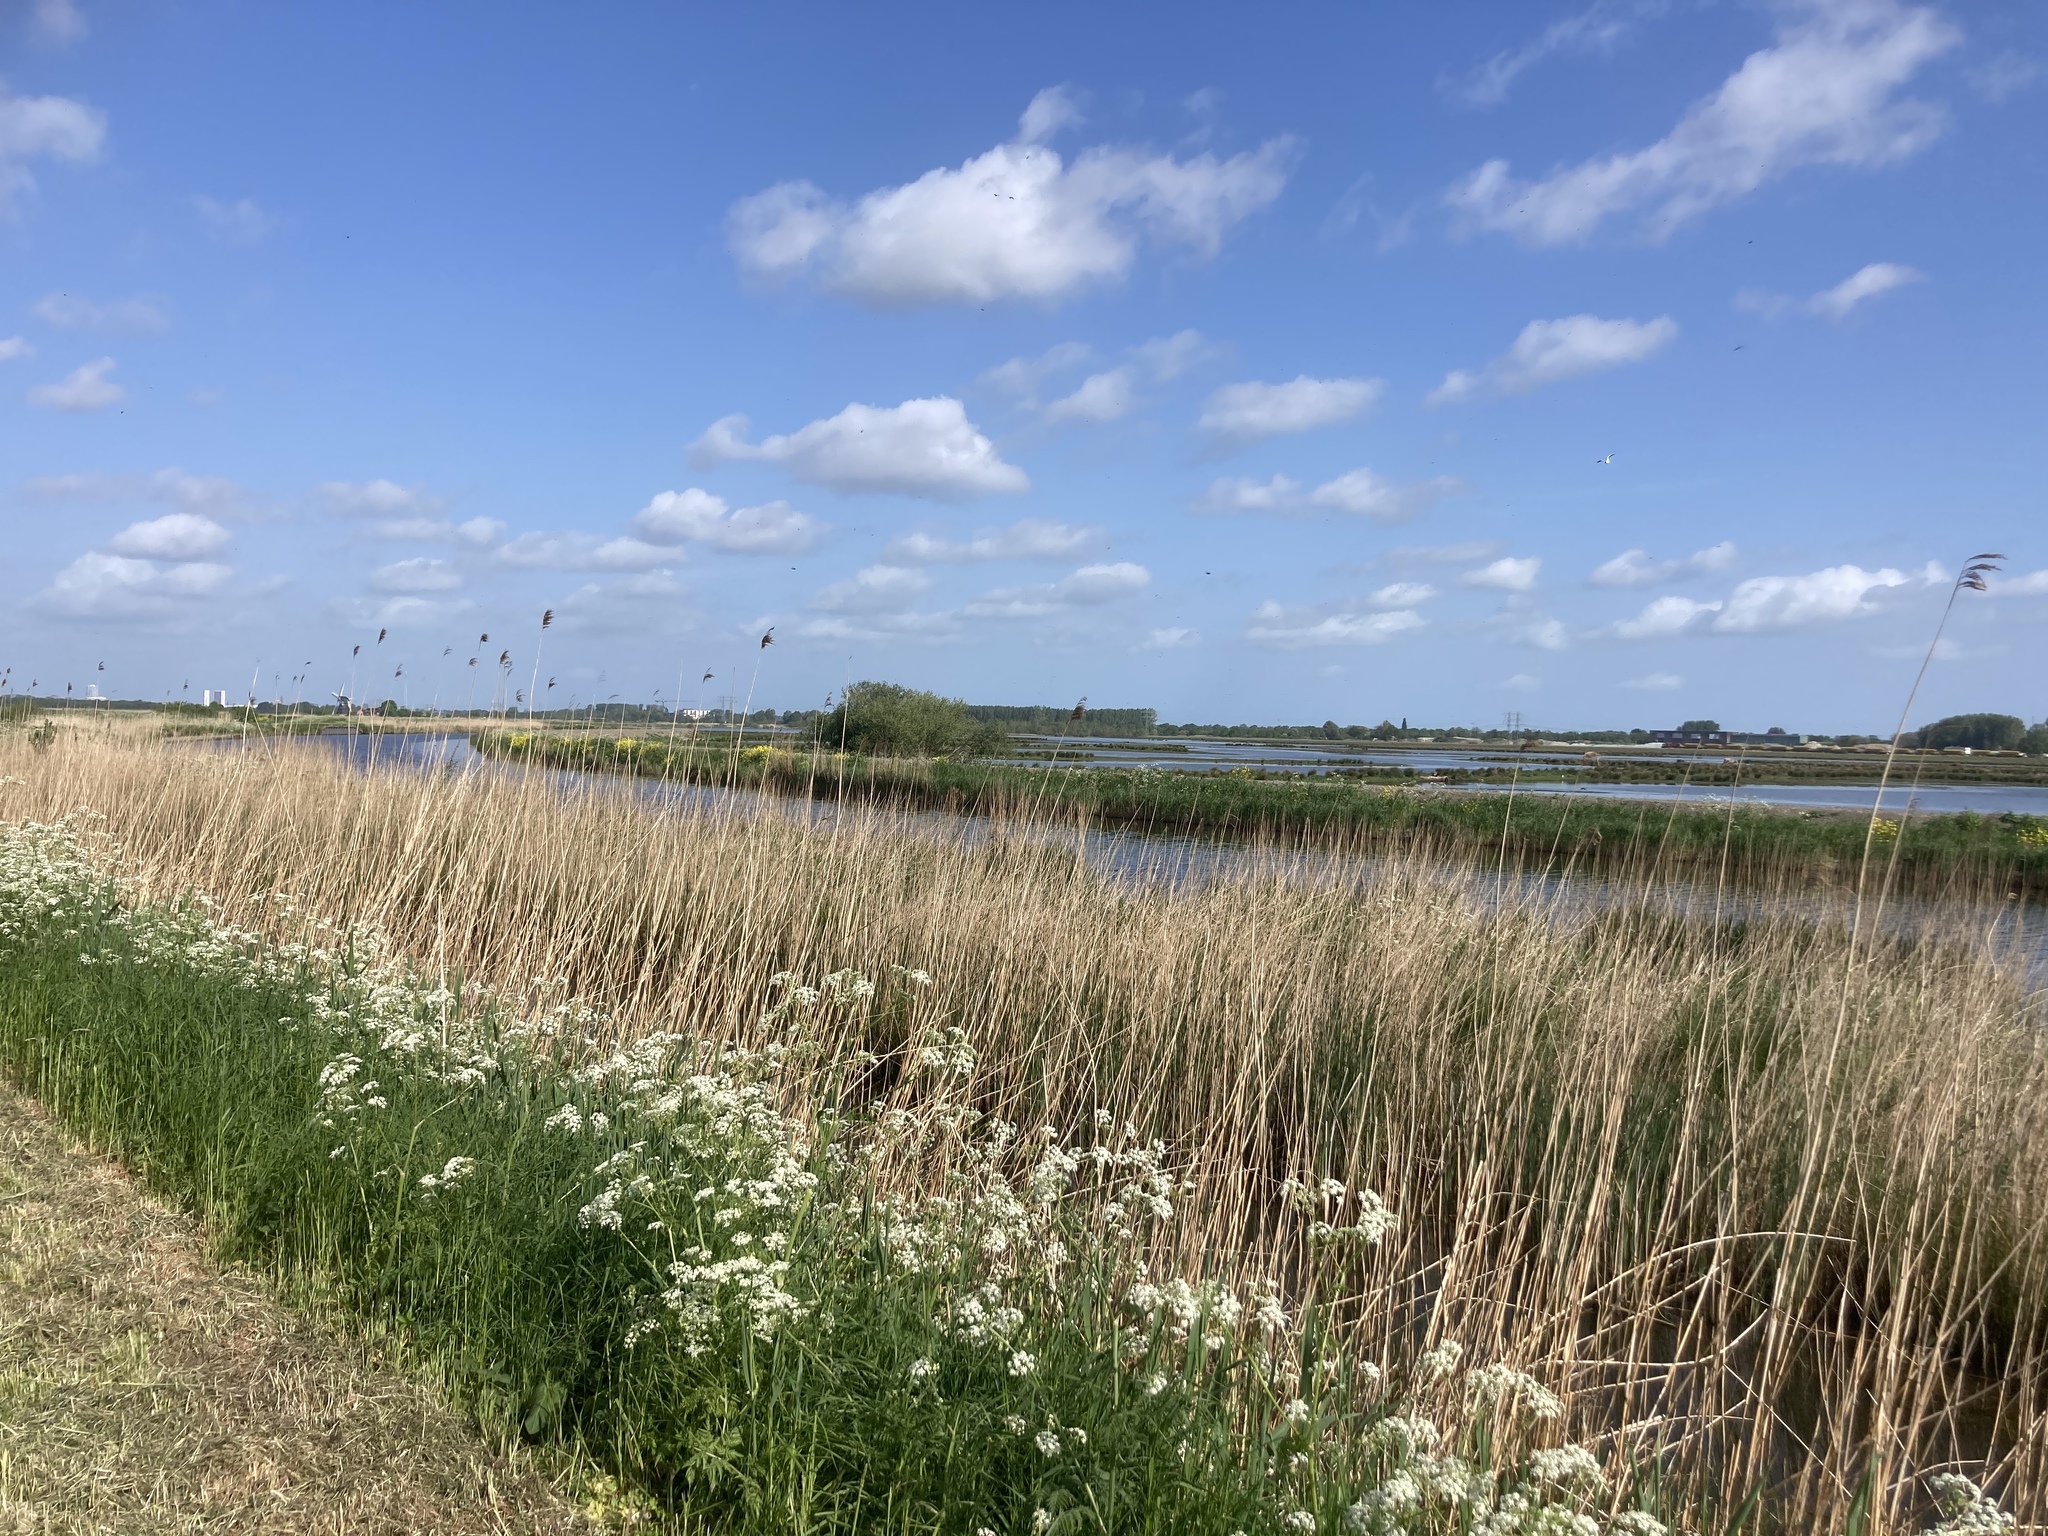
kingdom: Plantae
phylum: Tracheophyta
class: Liliopsida
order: Poales
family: Poaceae
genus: Phragmites
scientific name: Phragmites australis
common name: Common reed
